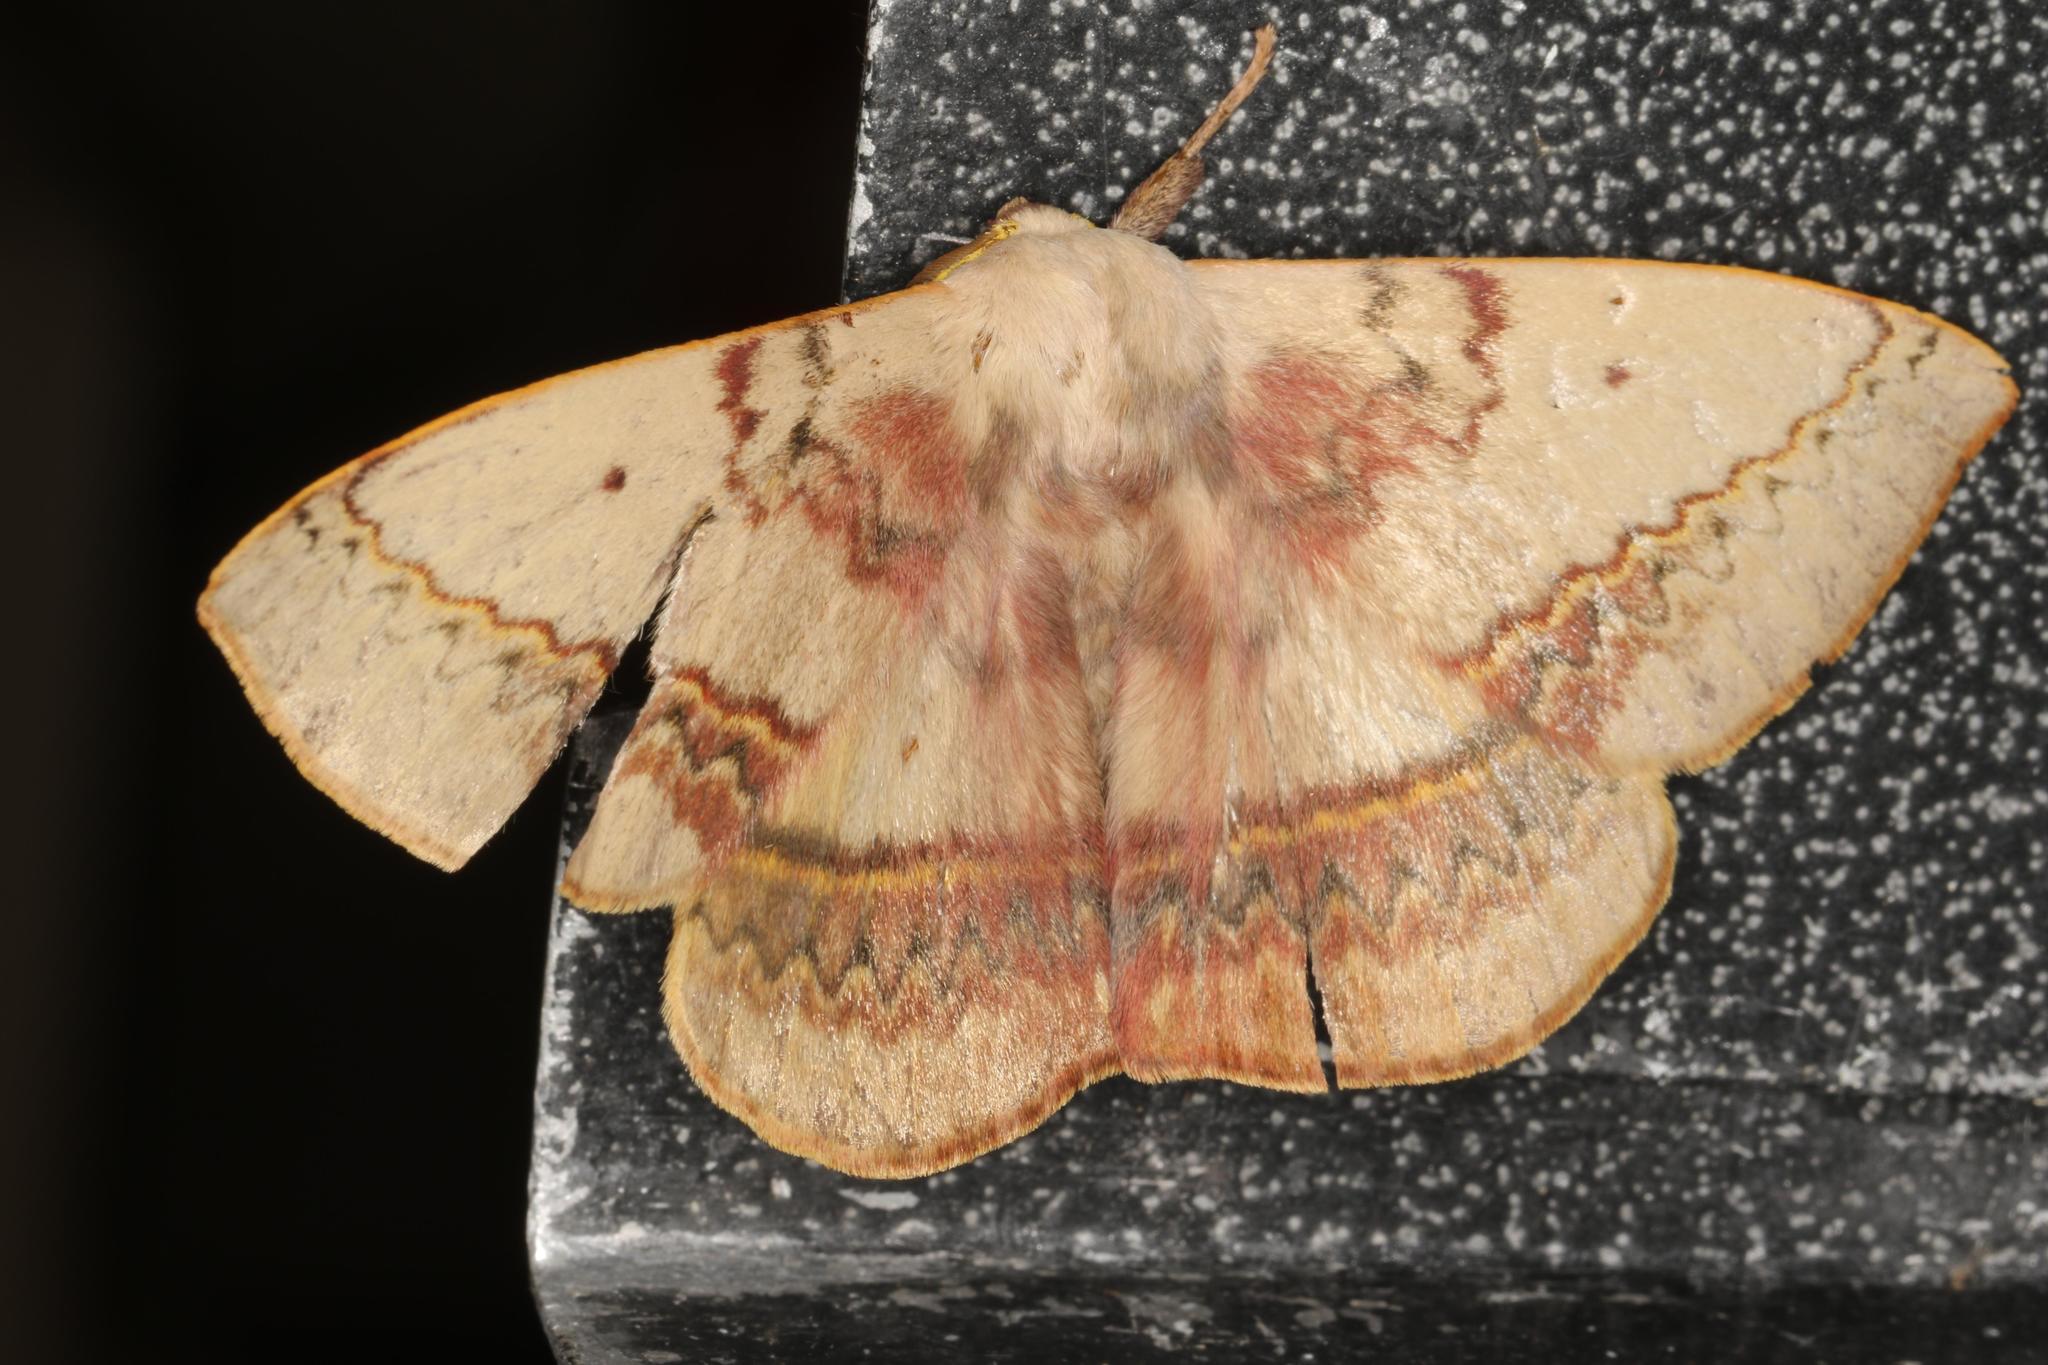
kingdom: Animalia
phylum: Arthropoda
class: Insecta
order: Lepidoptera
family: Anthelidae
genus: Anthela
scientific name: Anthela varia
